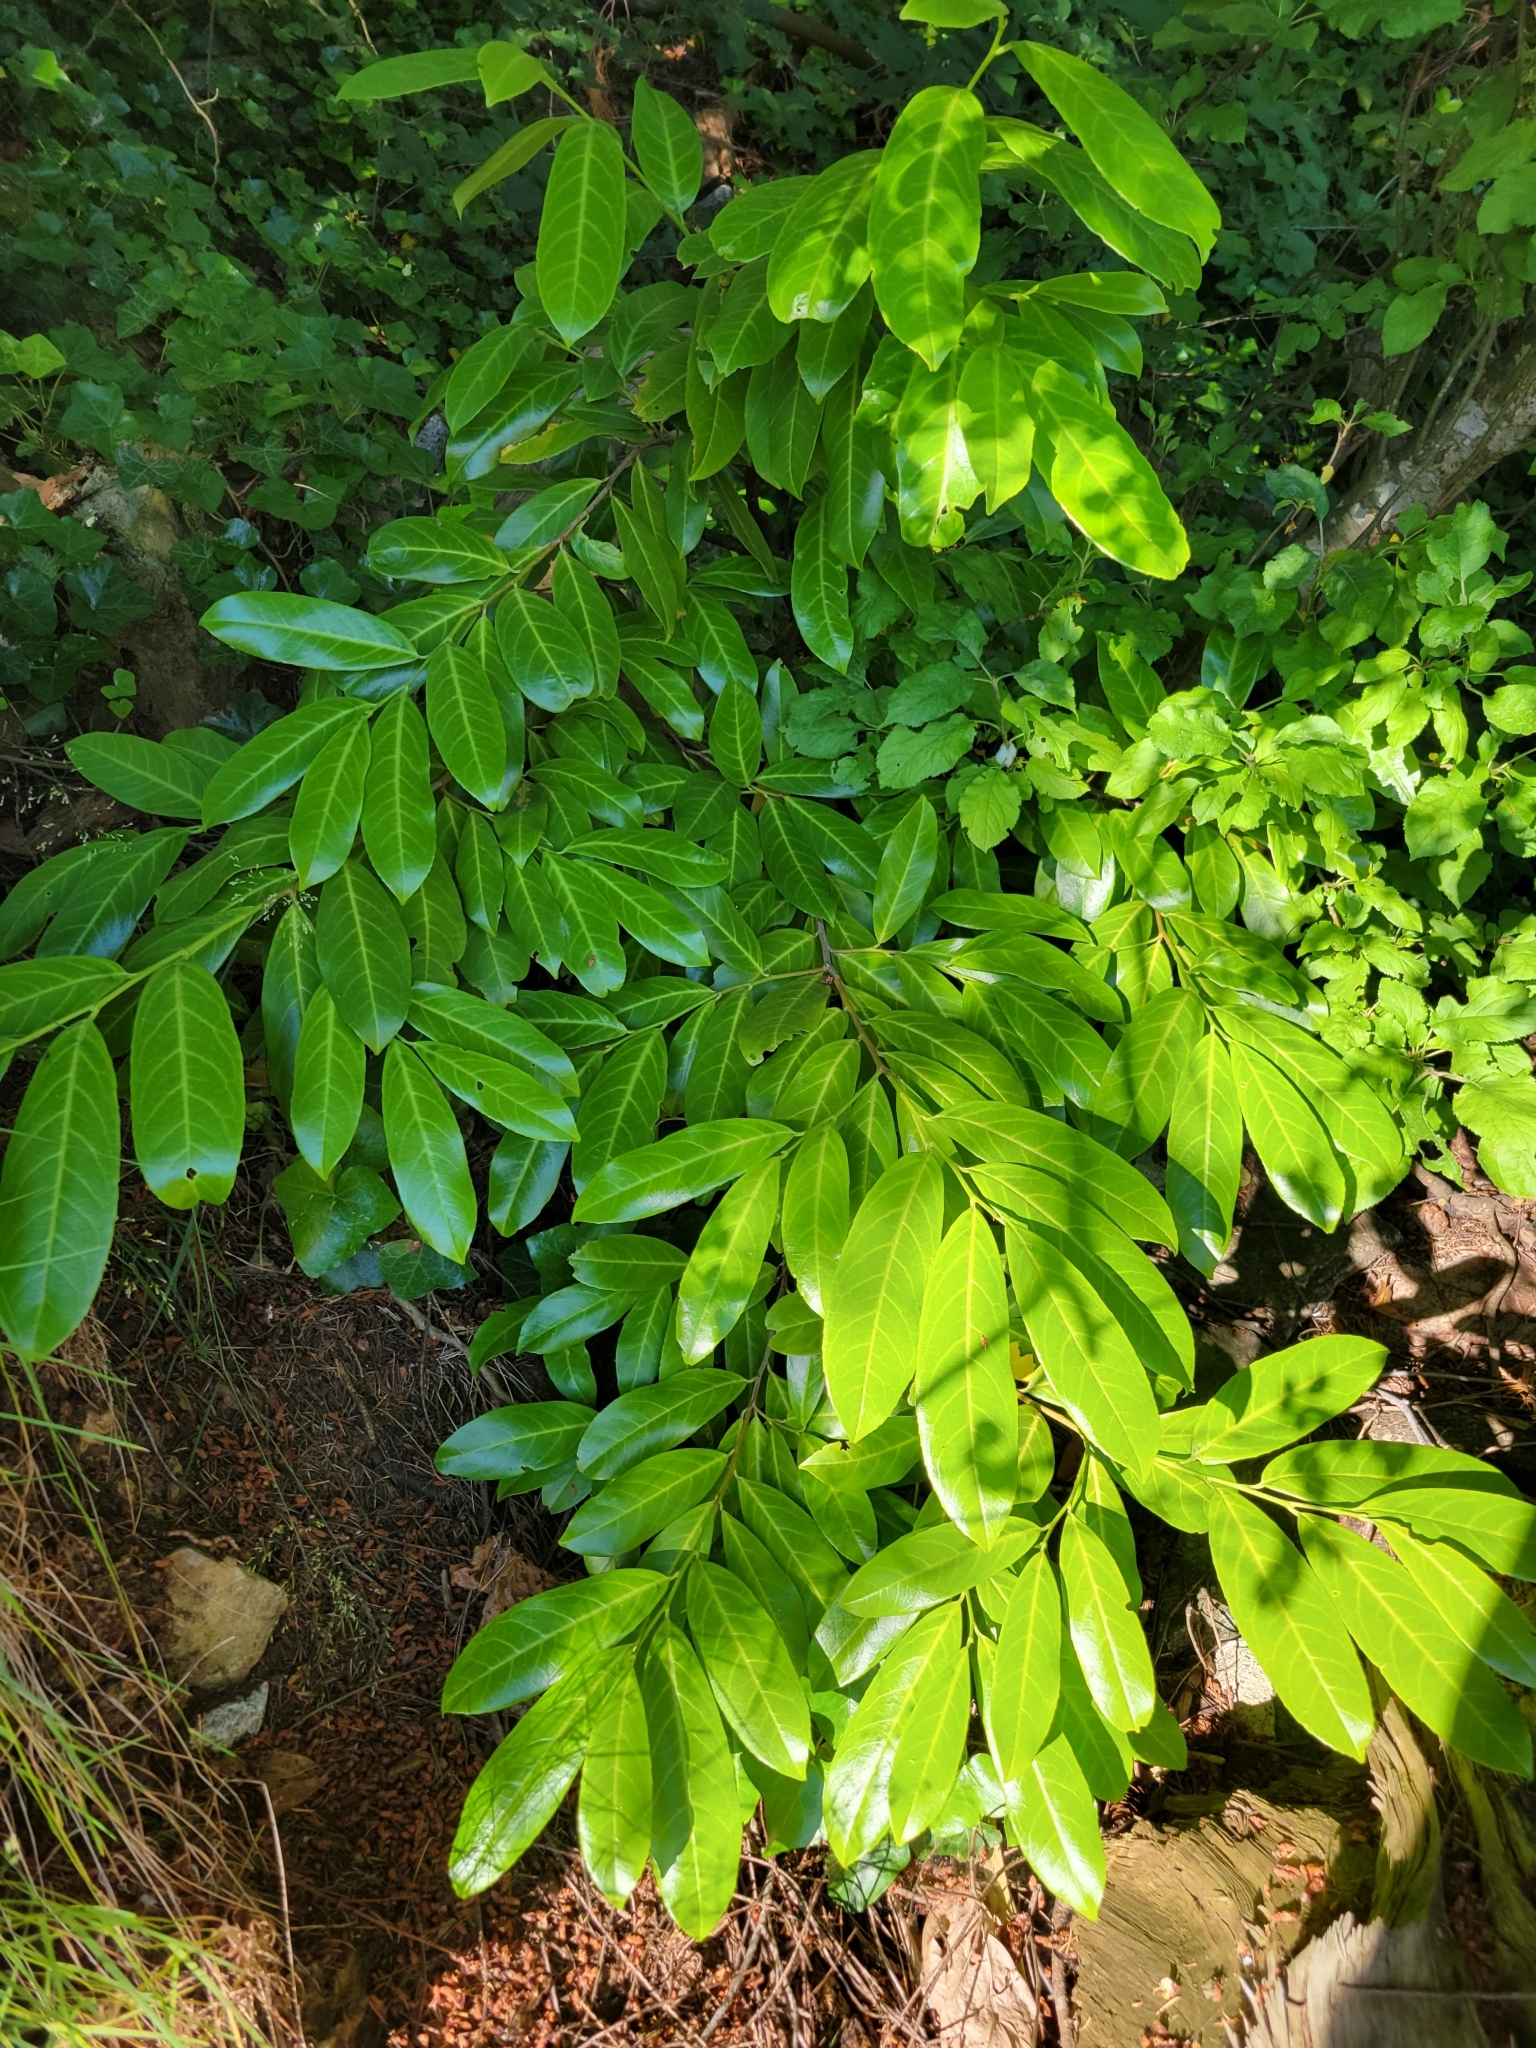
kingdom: Plantae
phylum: Tracheophyta
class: Magnoliopsida
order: Rosales
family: Rosaceae
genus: Prunus
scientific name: Prunus laurocerasus
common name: Cherry laurel
